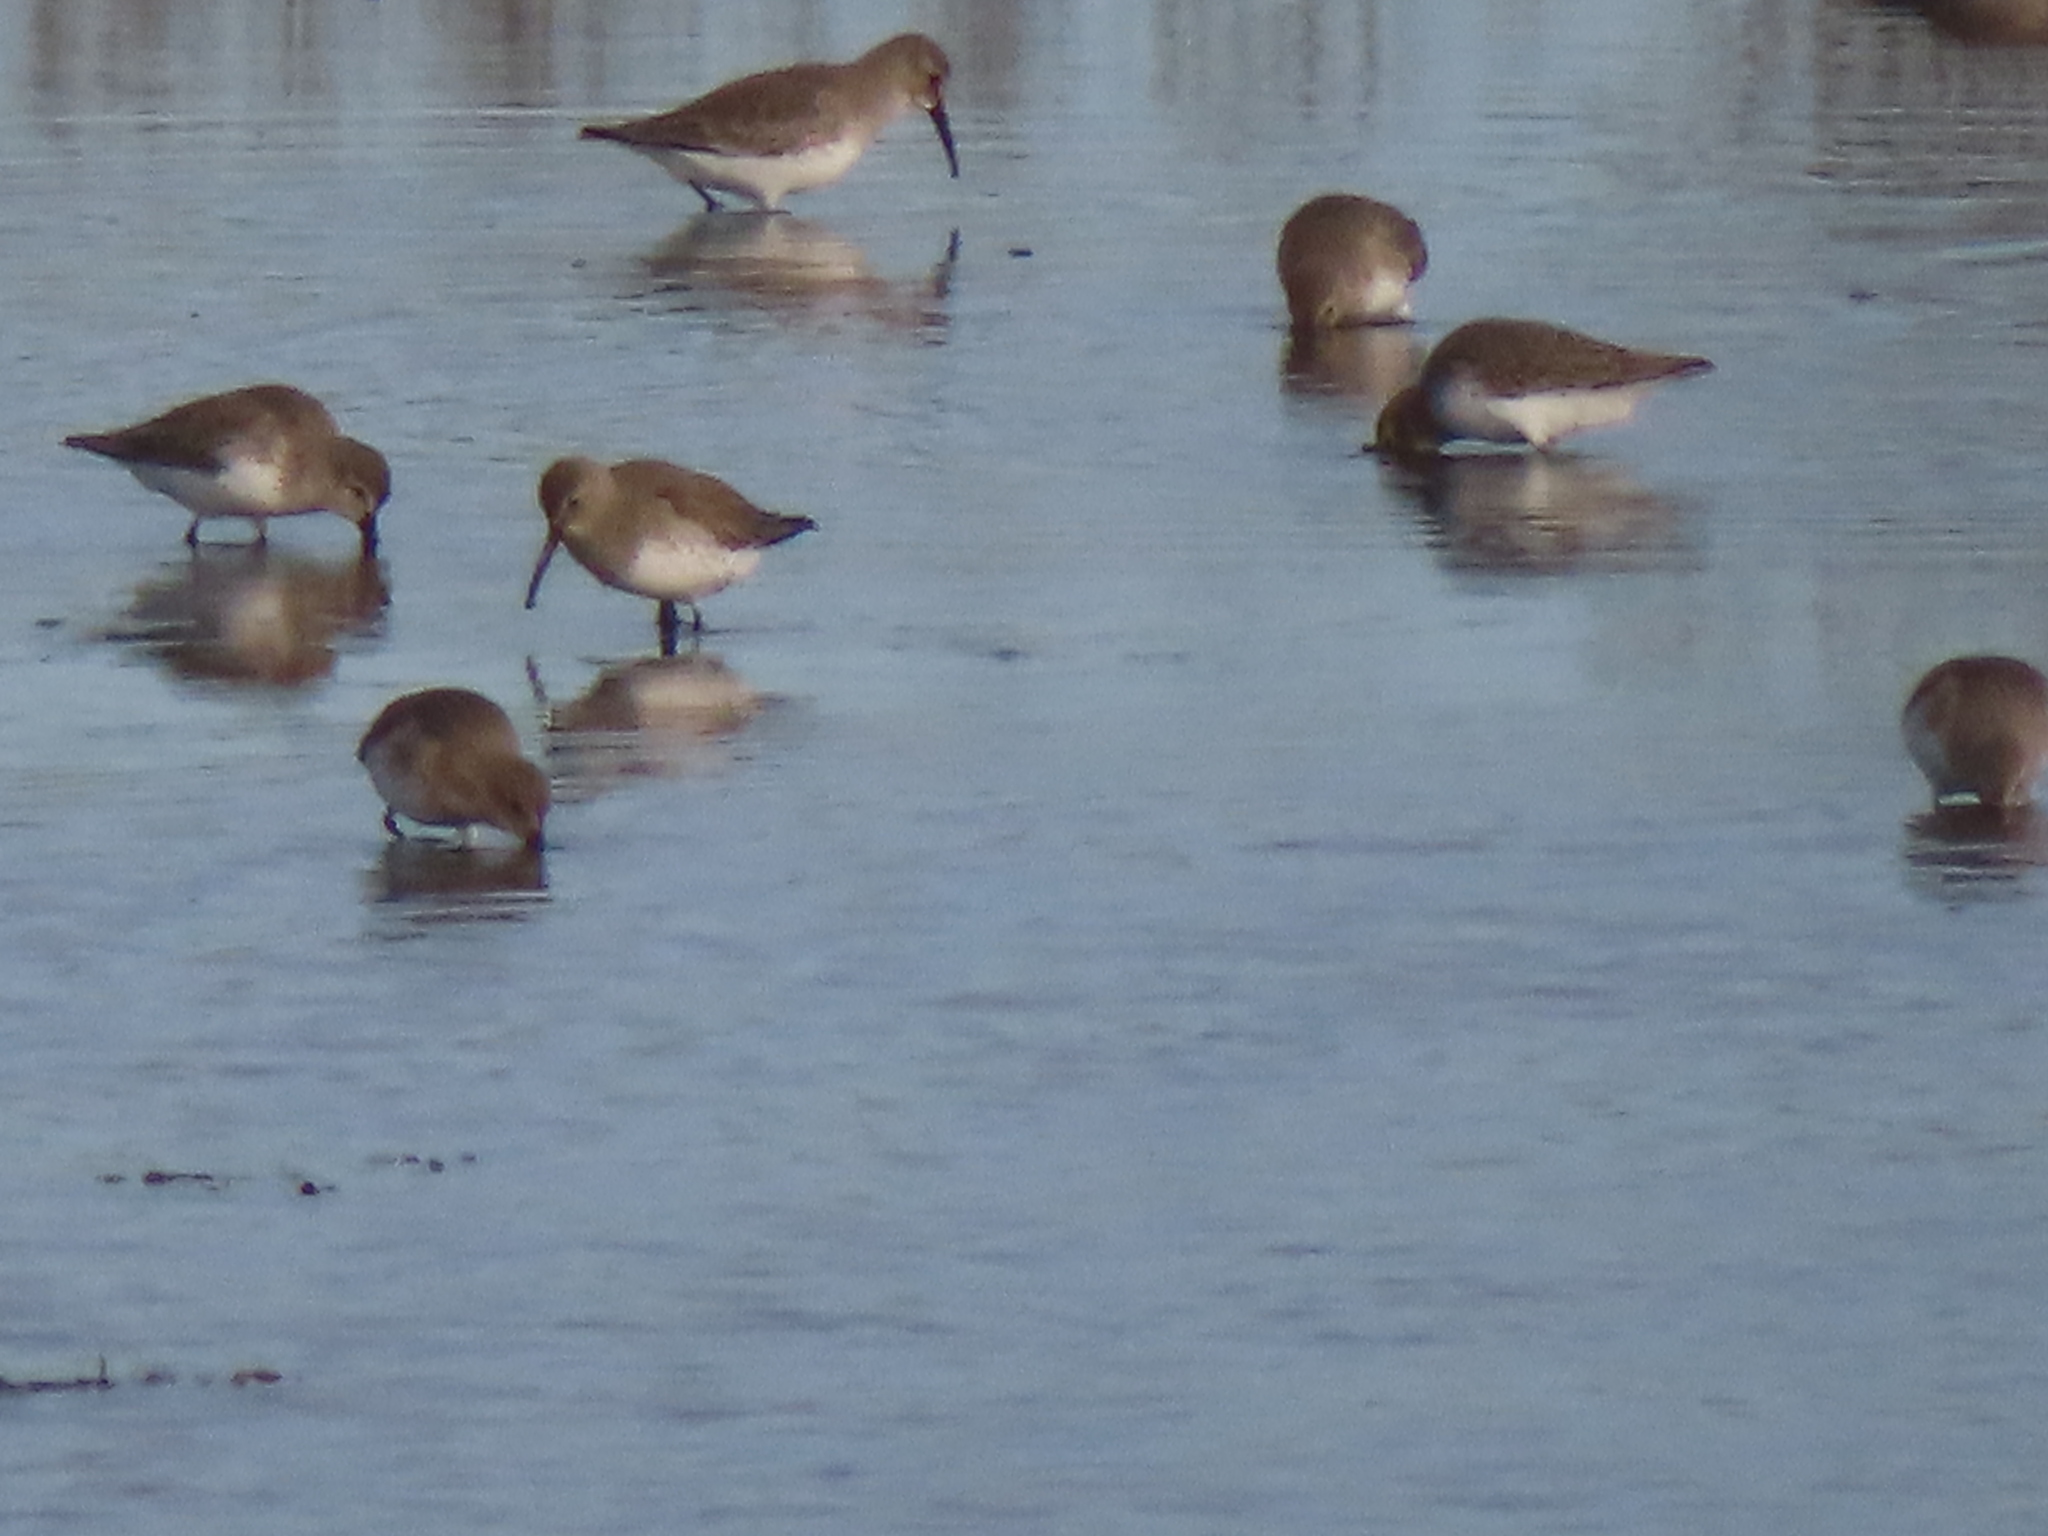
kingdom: Animalia
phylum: Chordata
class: Aves
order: Charadriiformes
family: Scolopacidae
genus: Calidris
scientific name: Calidris alpina
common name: Dunlin
